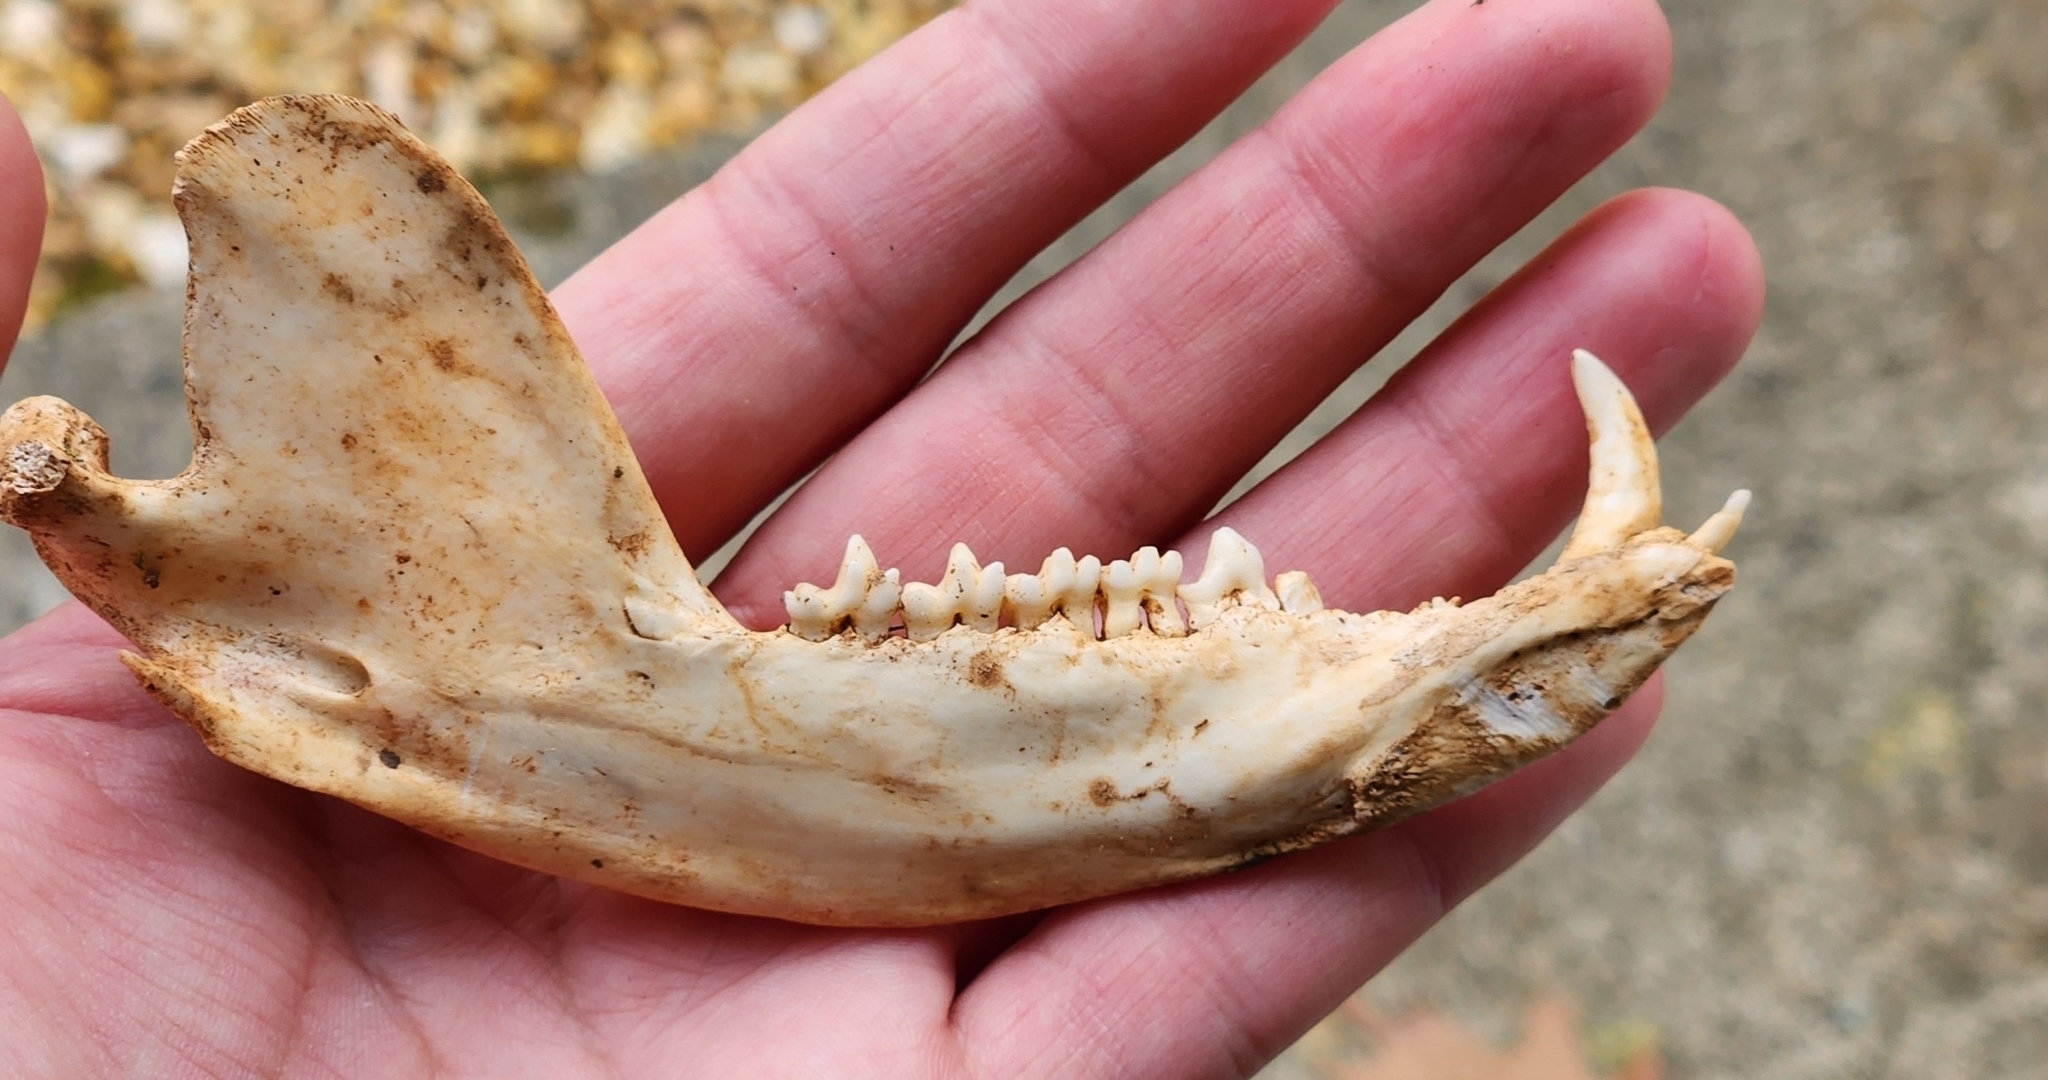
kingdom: Animalia
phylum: Chordata
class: Mammalia
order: Didelphimorphia
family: Didelphidae
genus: Didelphis
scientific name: Didelphis virginiana
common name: Virginia opossum
